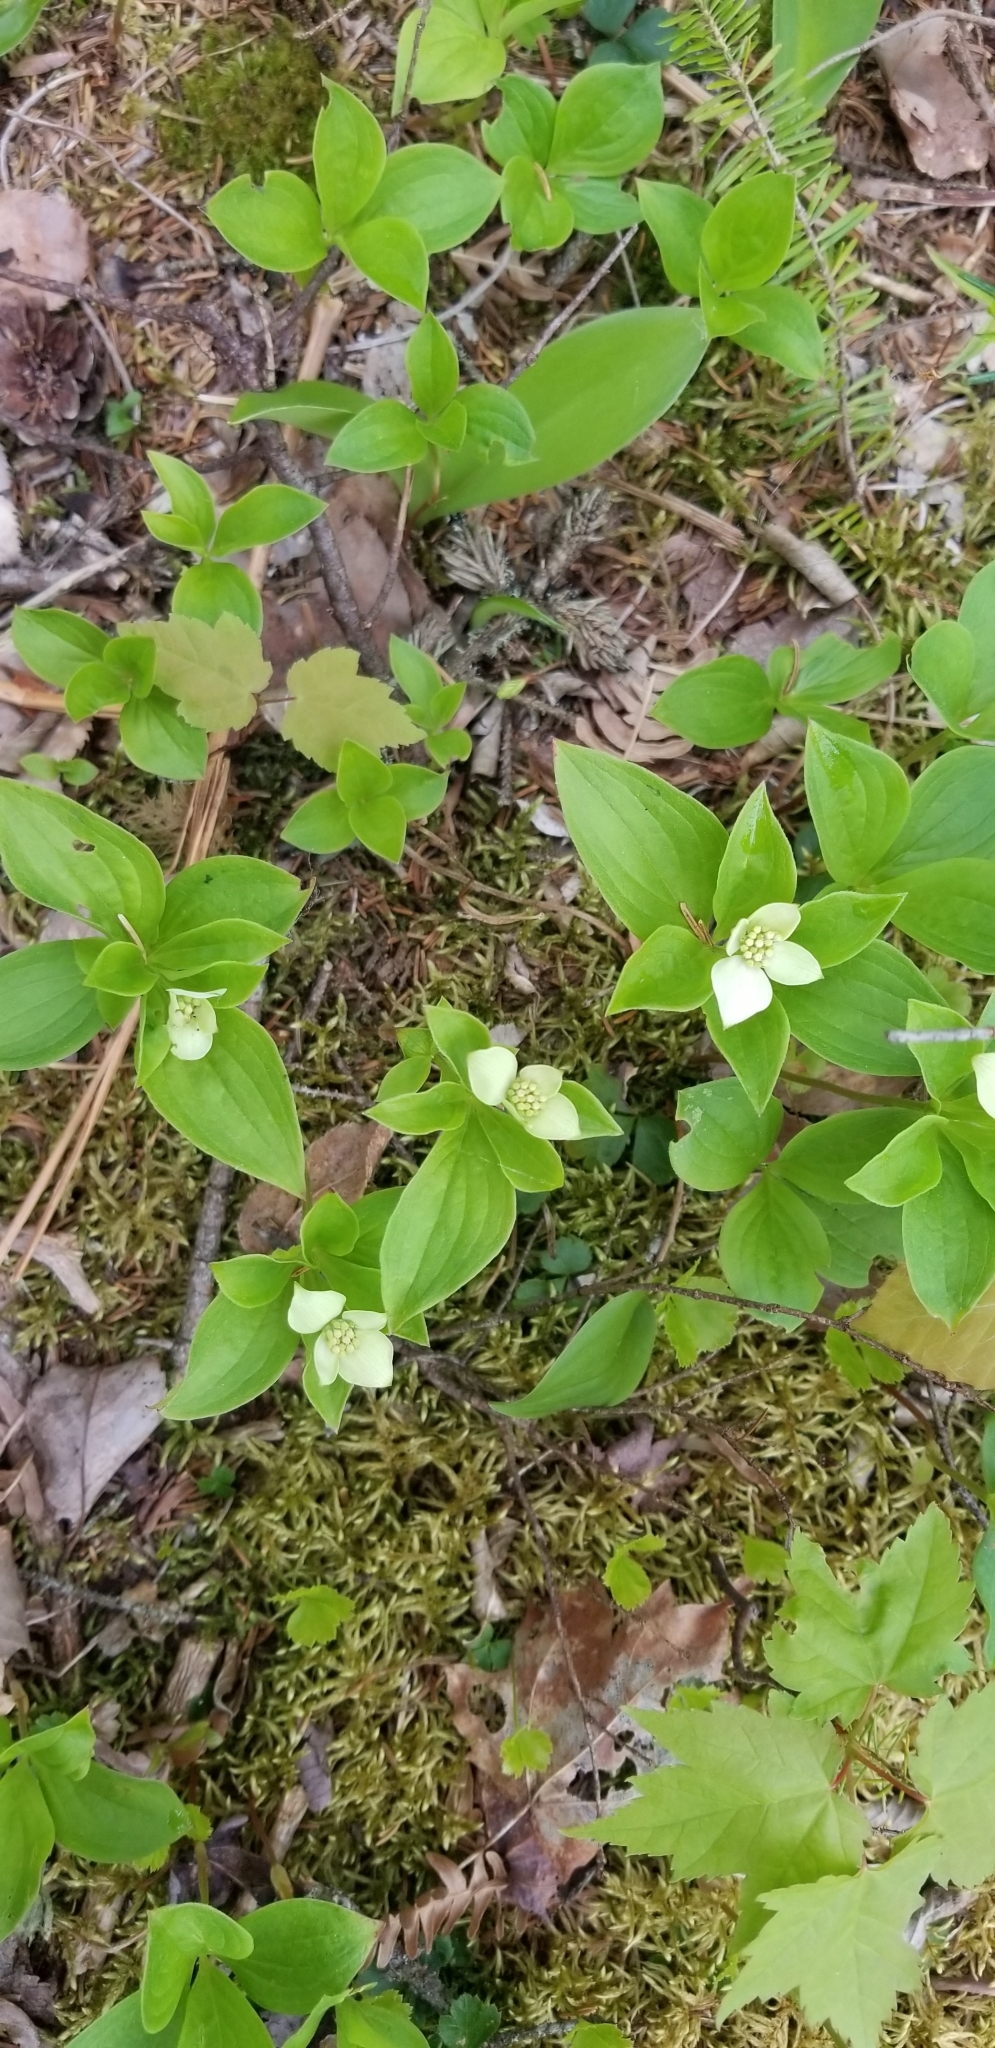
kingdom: Plantae
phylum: Tracheophyta
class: Magnoliopsida
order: Cornales
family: Cornaceae
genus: Cornus
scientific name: Cornus canadensis
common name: Creeping dogwood
